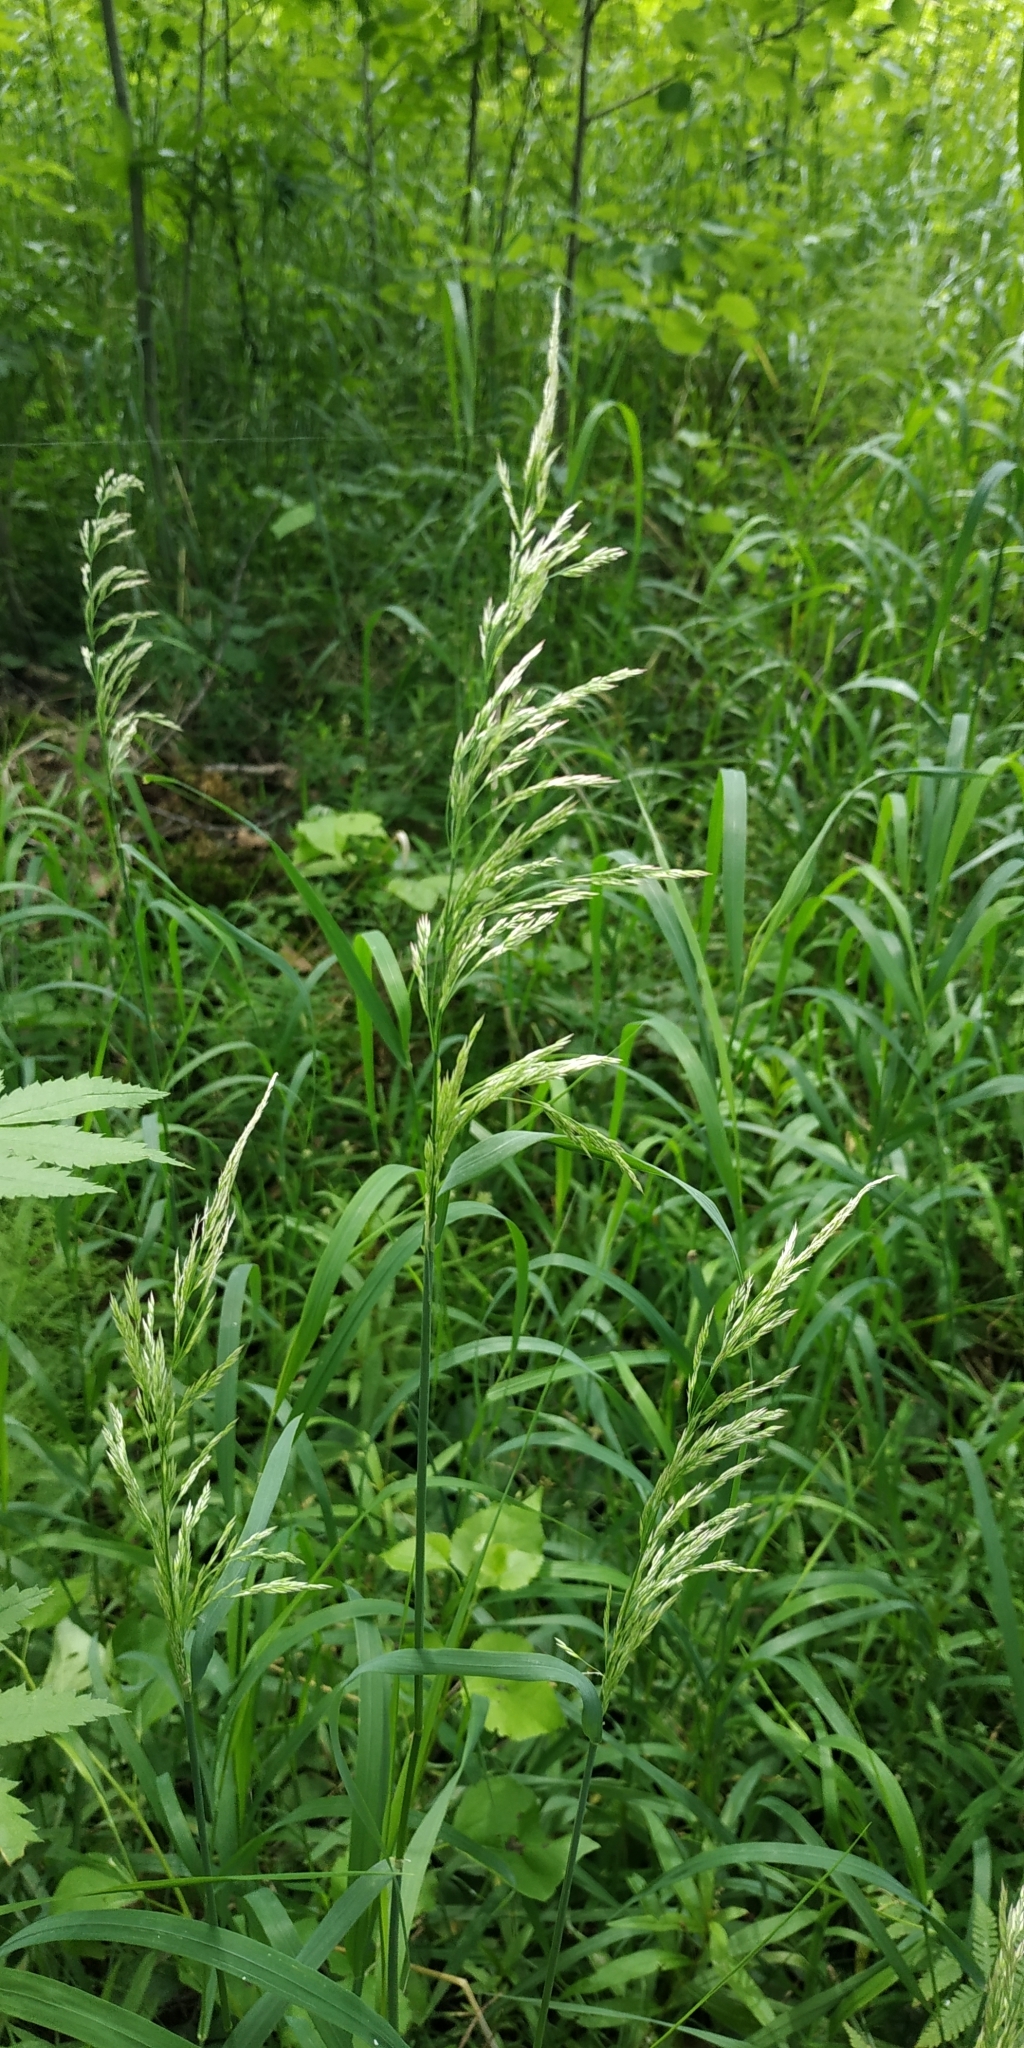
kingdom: Plantae
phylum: Tracheophyta
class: Liliopsida
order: Poales
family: Poaceae
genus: Calamagrostis
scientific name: Calamagrostis arundinacea
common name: Metskastik
